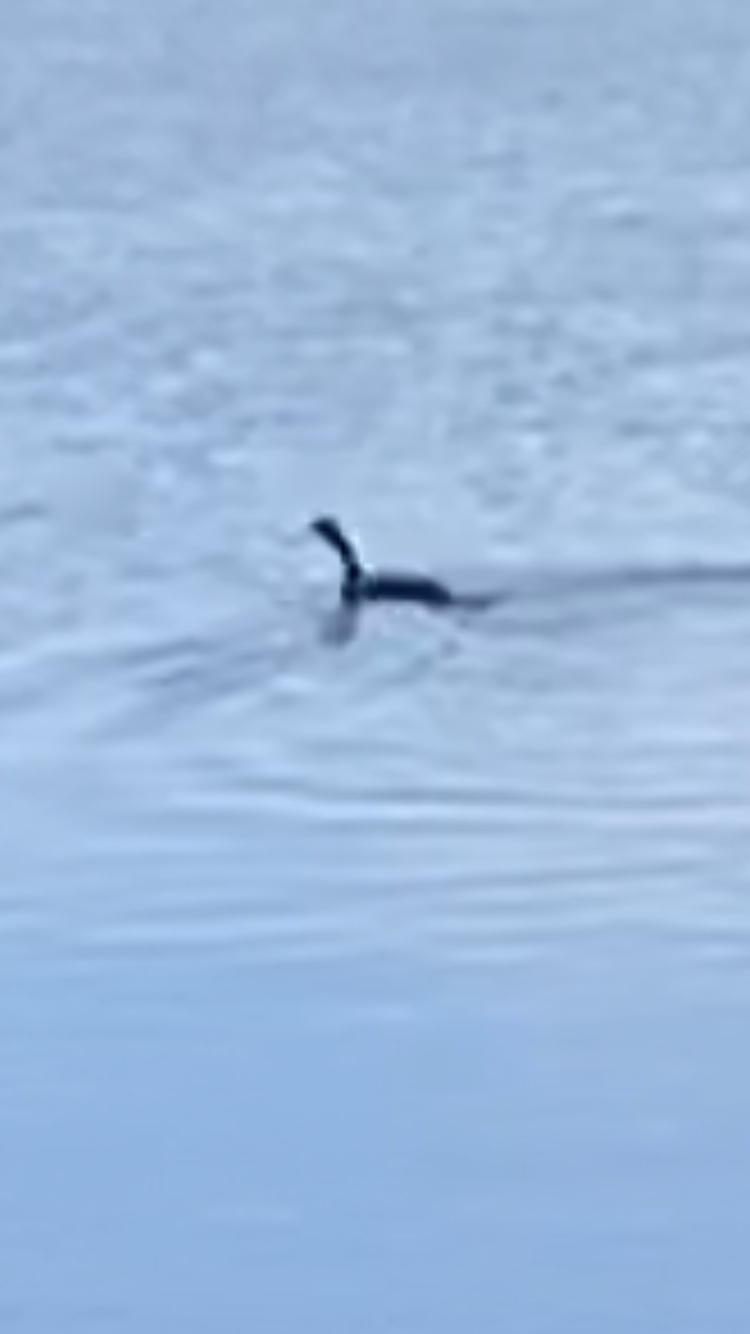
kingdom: Animalia
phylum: Chordata
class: Aves
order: Suliformes
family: Phalacrocoracidae
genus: Phalacrocorax
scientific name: Phalacrocorax carbo
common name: Great cormorant
